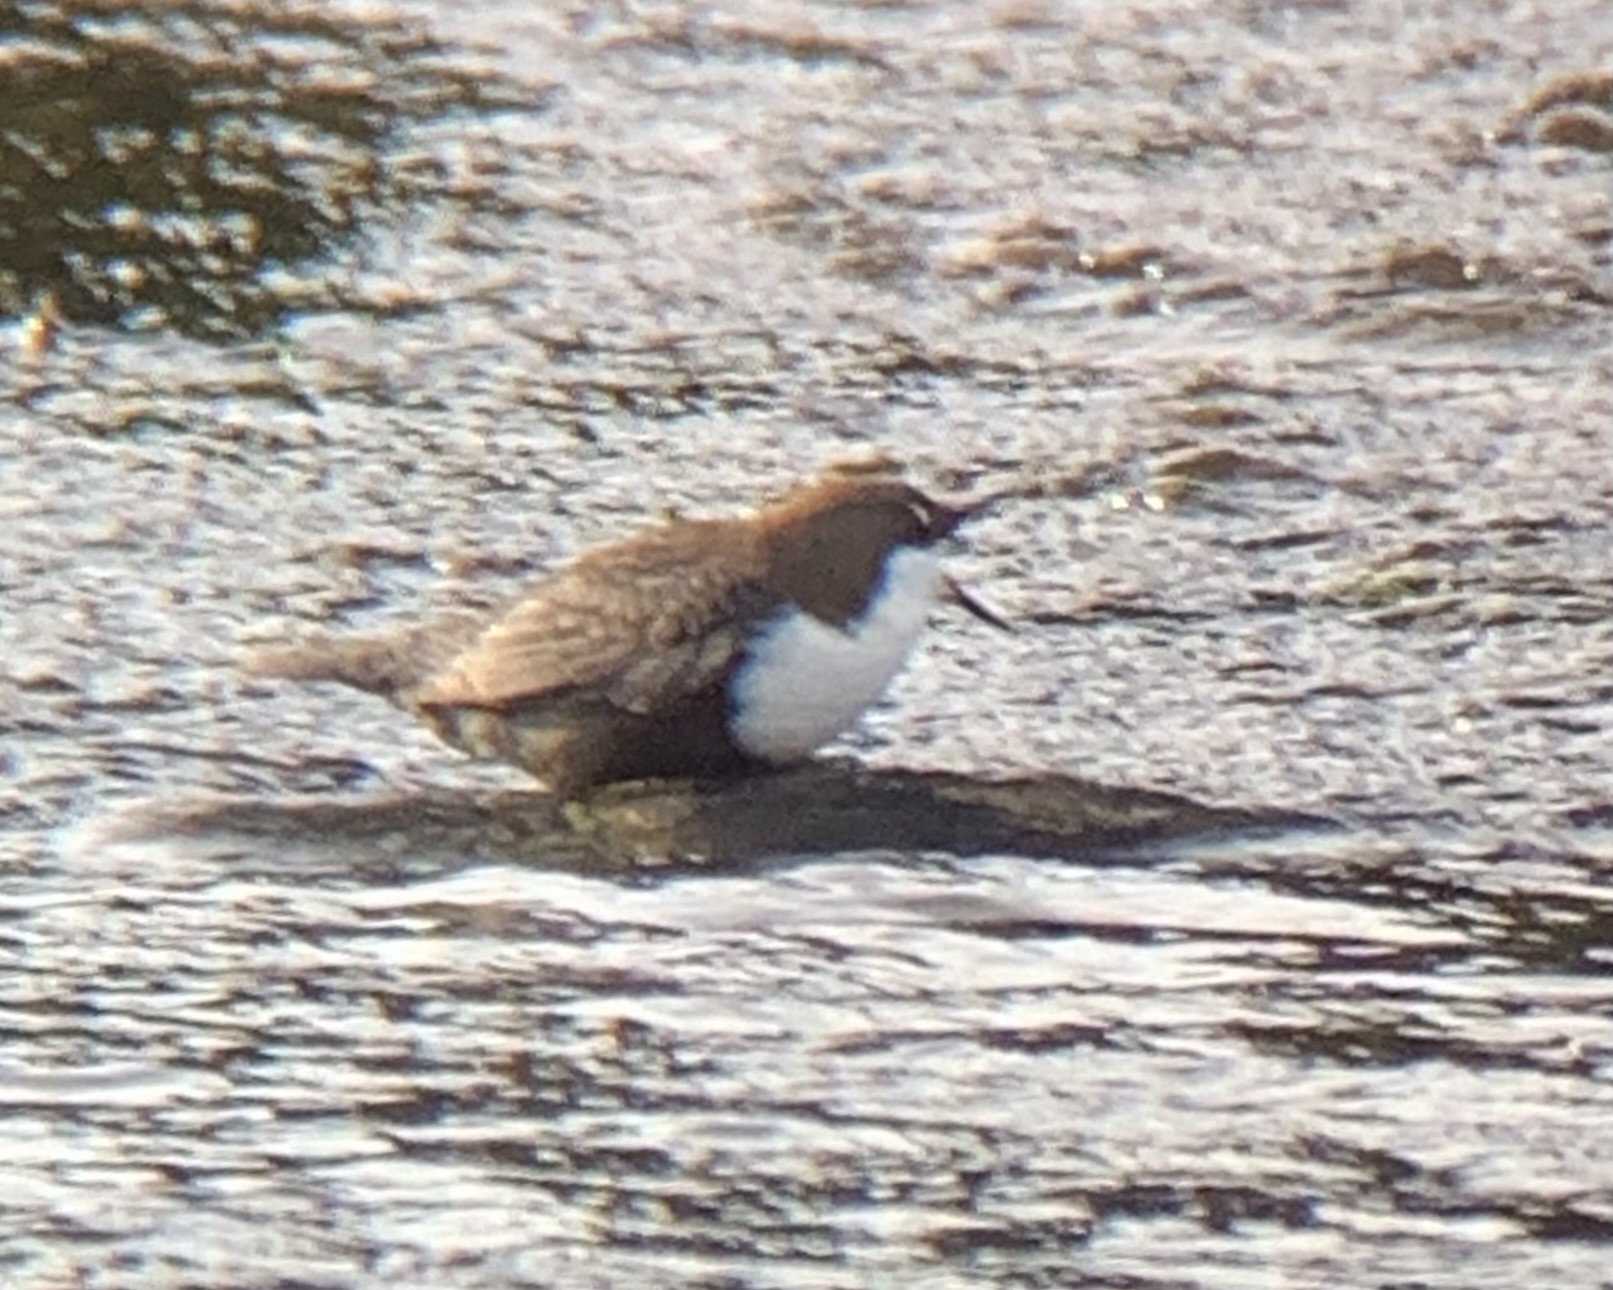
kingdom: Animalia
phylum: Chordata
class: Aves
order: Passeriformes
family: Cinclidae
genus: Cinclus
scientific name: Cinclus cinclus
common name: White-throated dipper
